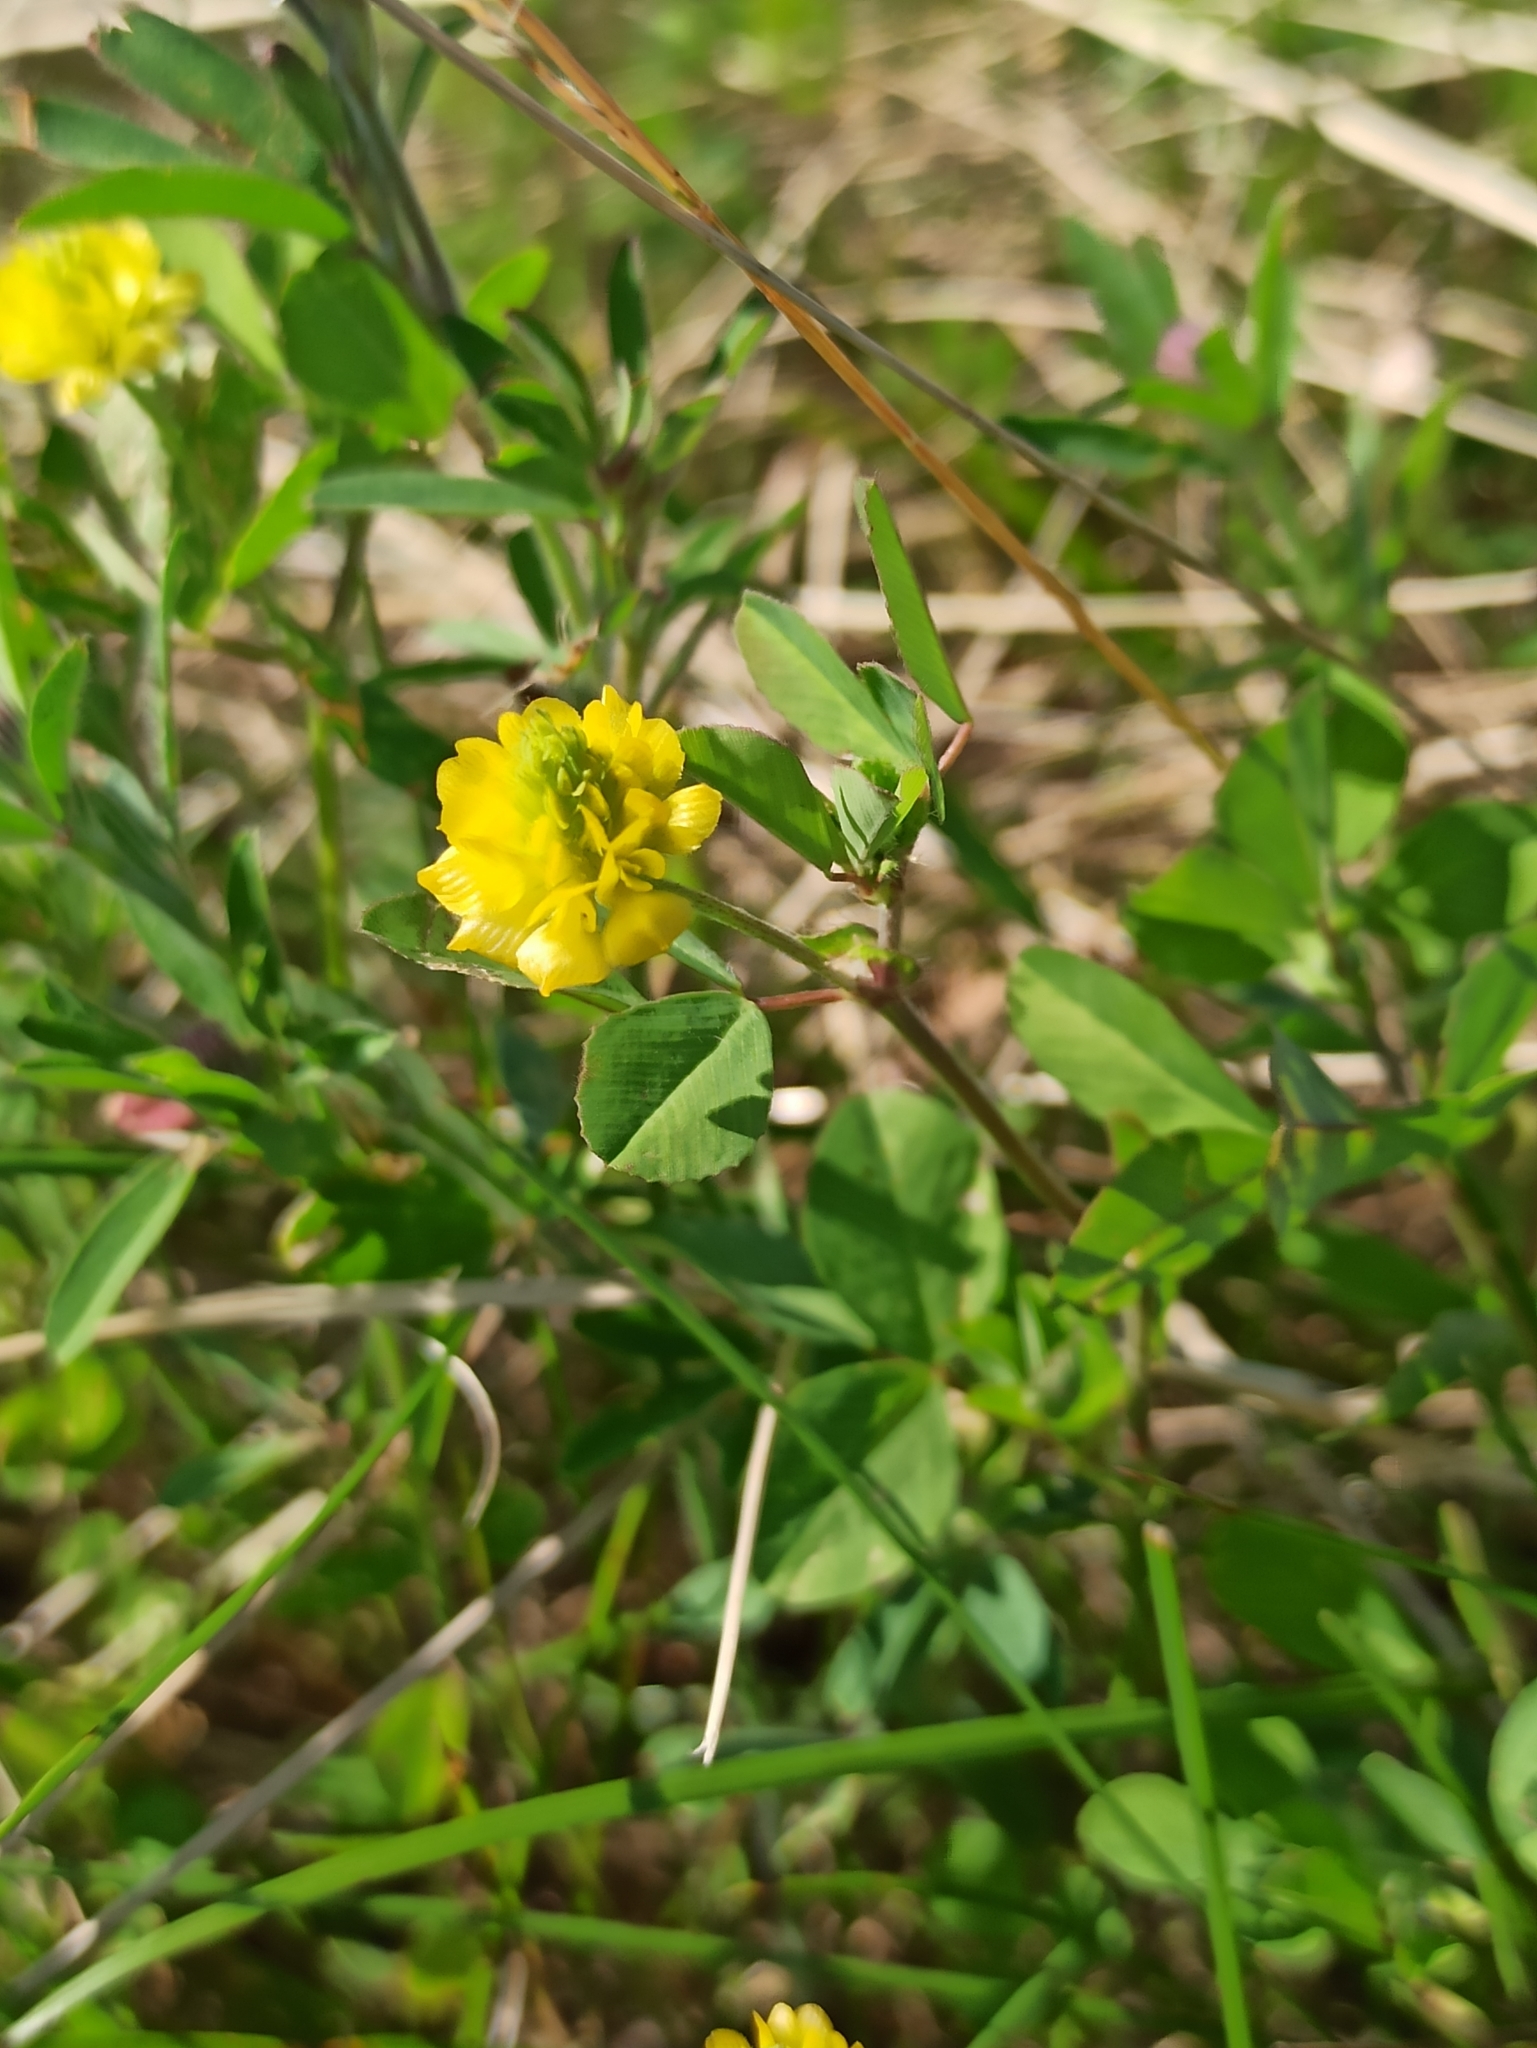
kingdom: Plantae
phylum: Tracheophyta
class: Magnoliopsida
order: Fabales
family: Fabaceae
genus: Trifolium
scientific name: Trifolium campestre
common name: Field clover
